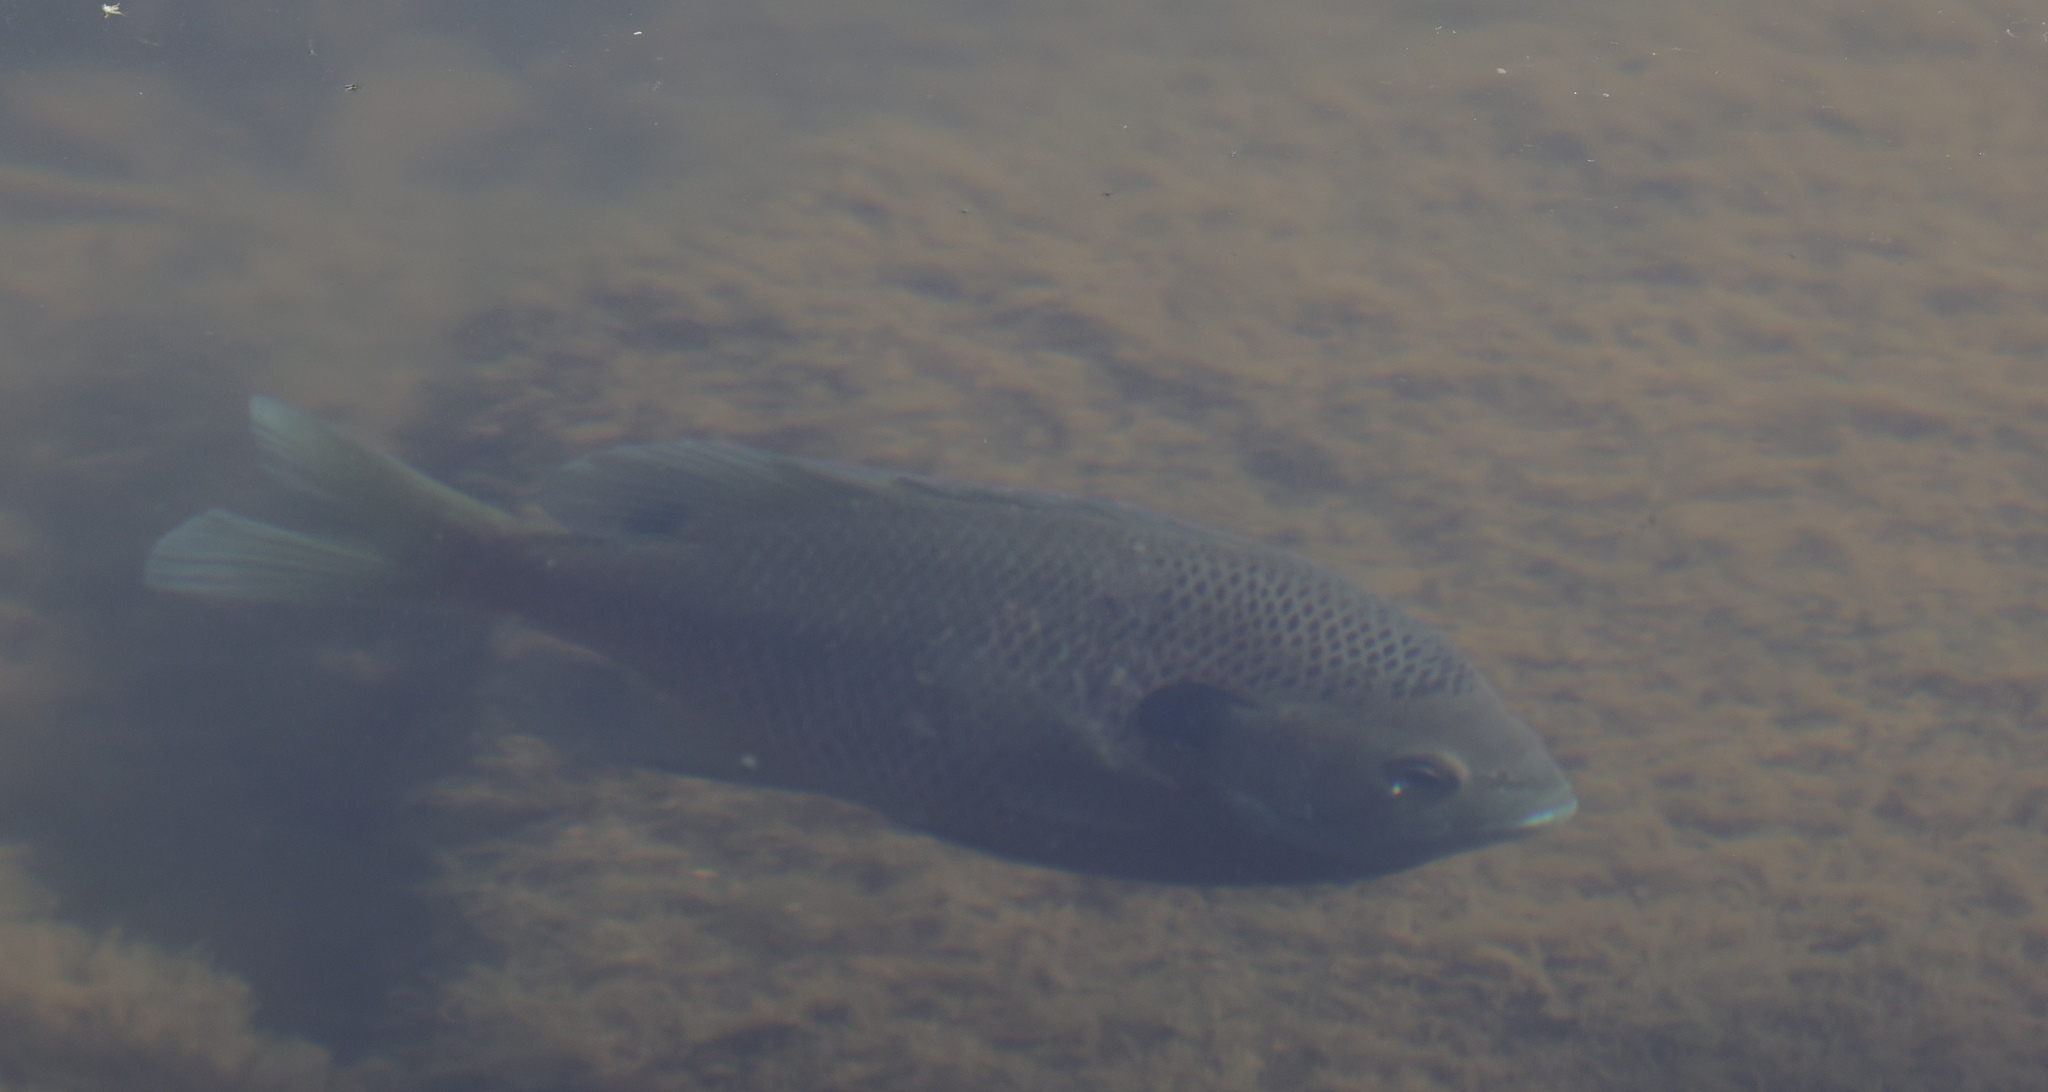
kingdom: Animalia
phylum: Chordata
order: Perciformes
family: Centrarchidae
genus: Lepomis
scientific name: Lepomis macrochirus
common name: Bluegill
